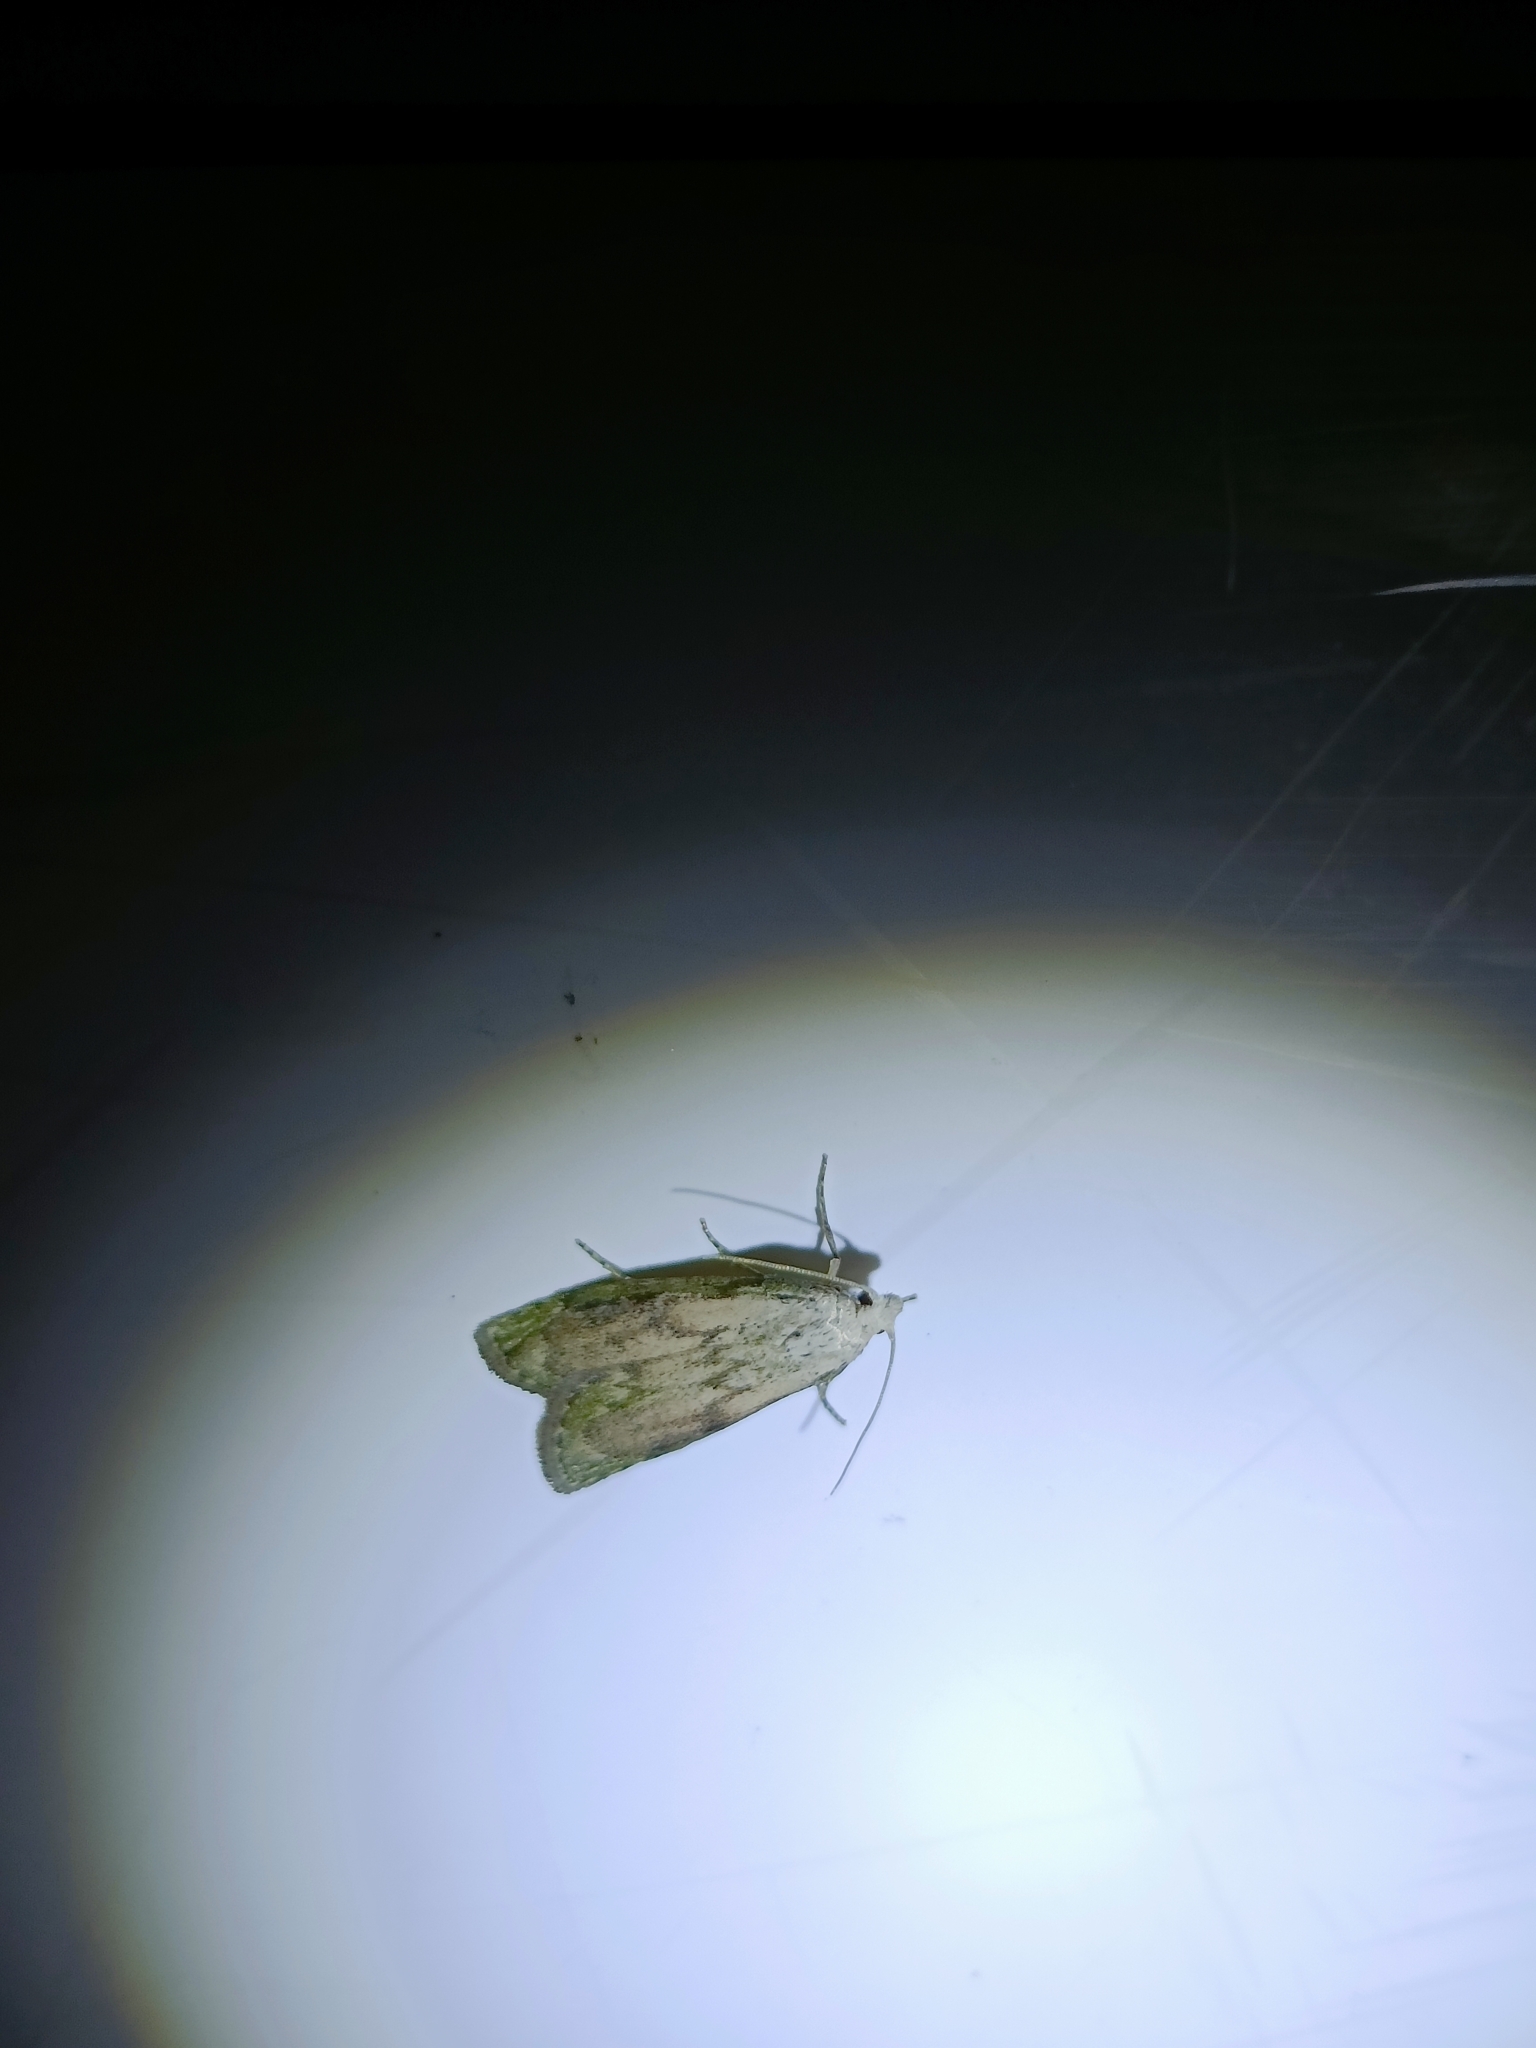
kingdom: Animalia
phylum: Arthropoda
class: Insecta
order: Lepidoptera
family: Pyralidae
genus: Aphomia
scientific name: Aphomia sociella
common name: Bee moth
